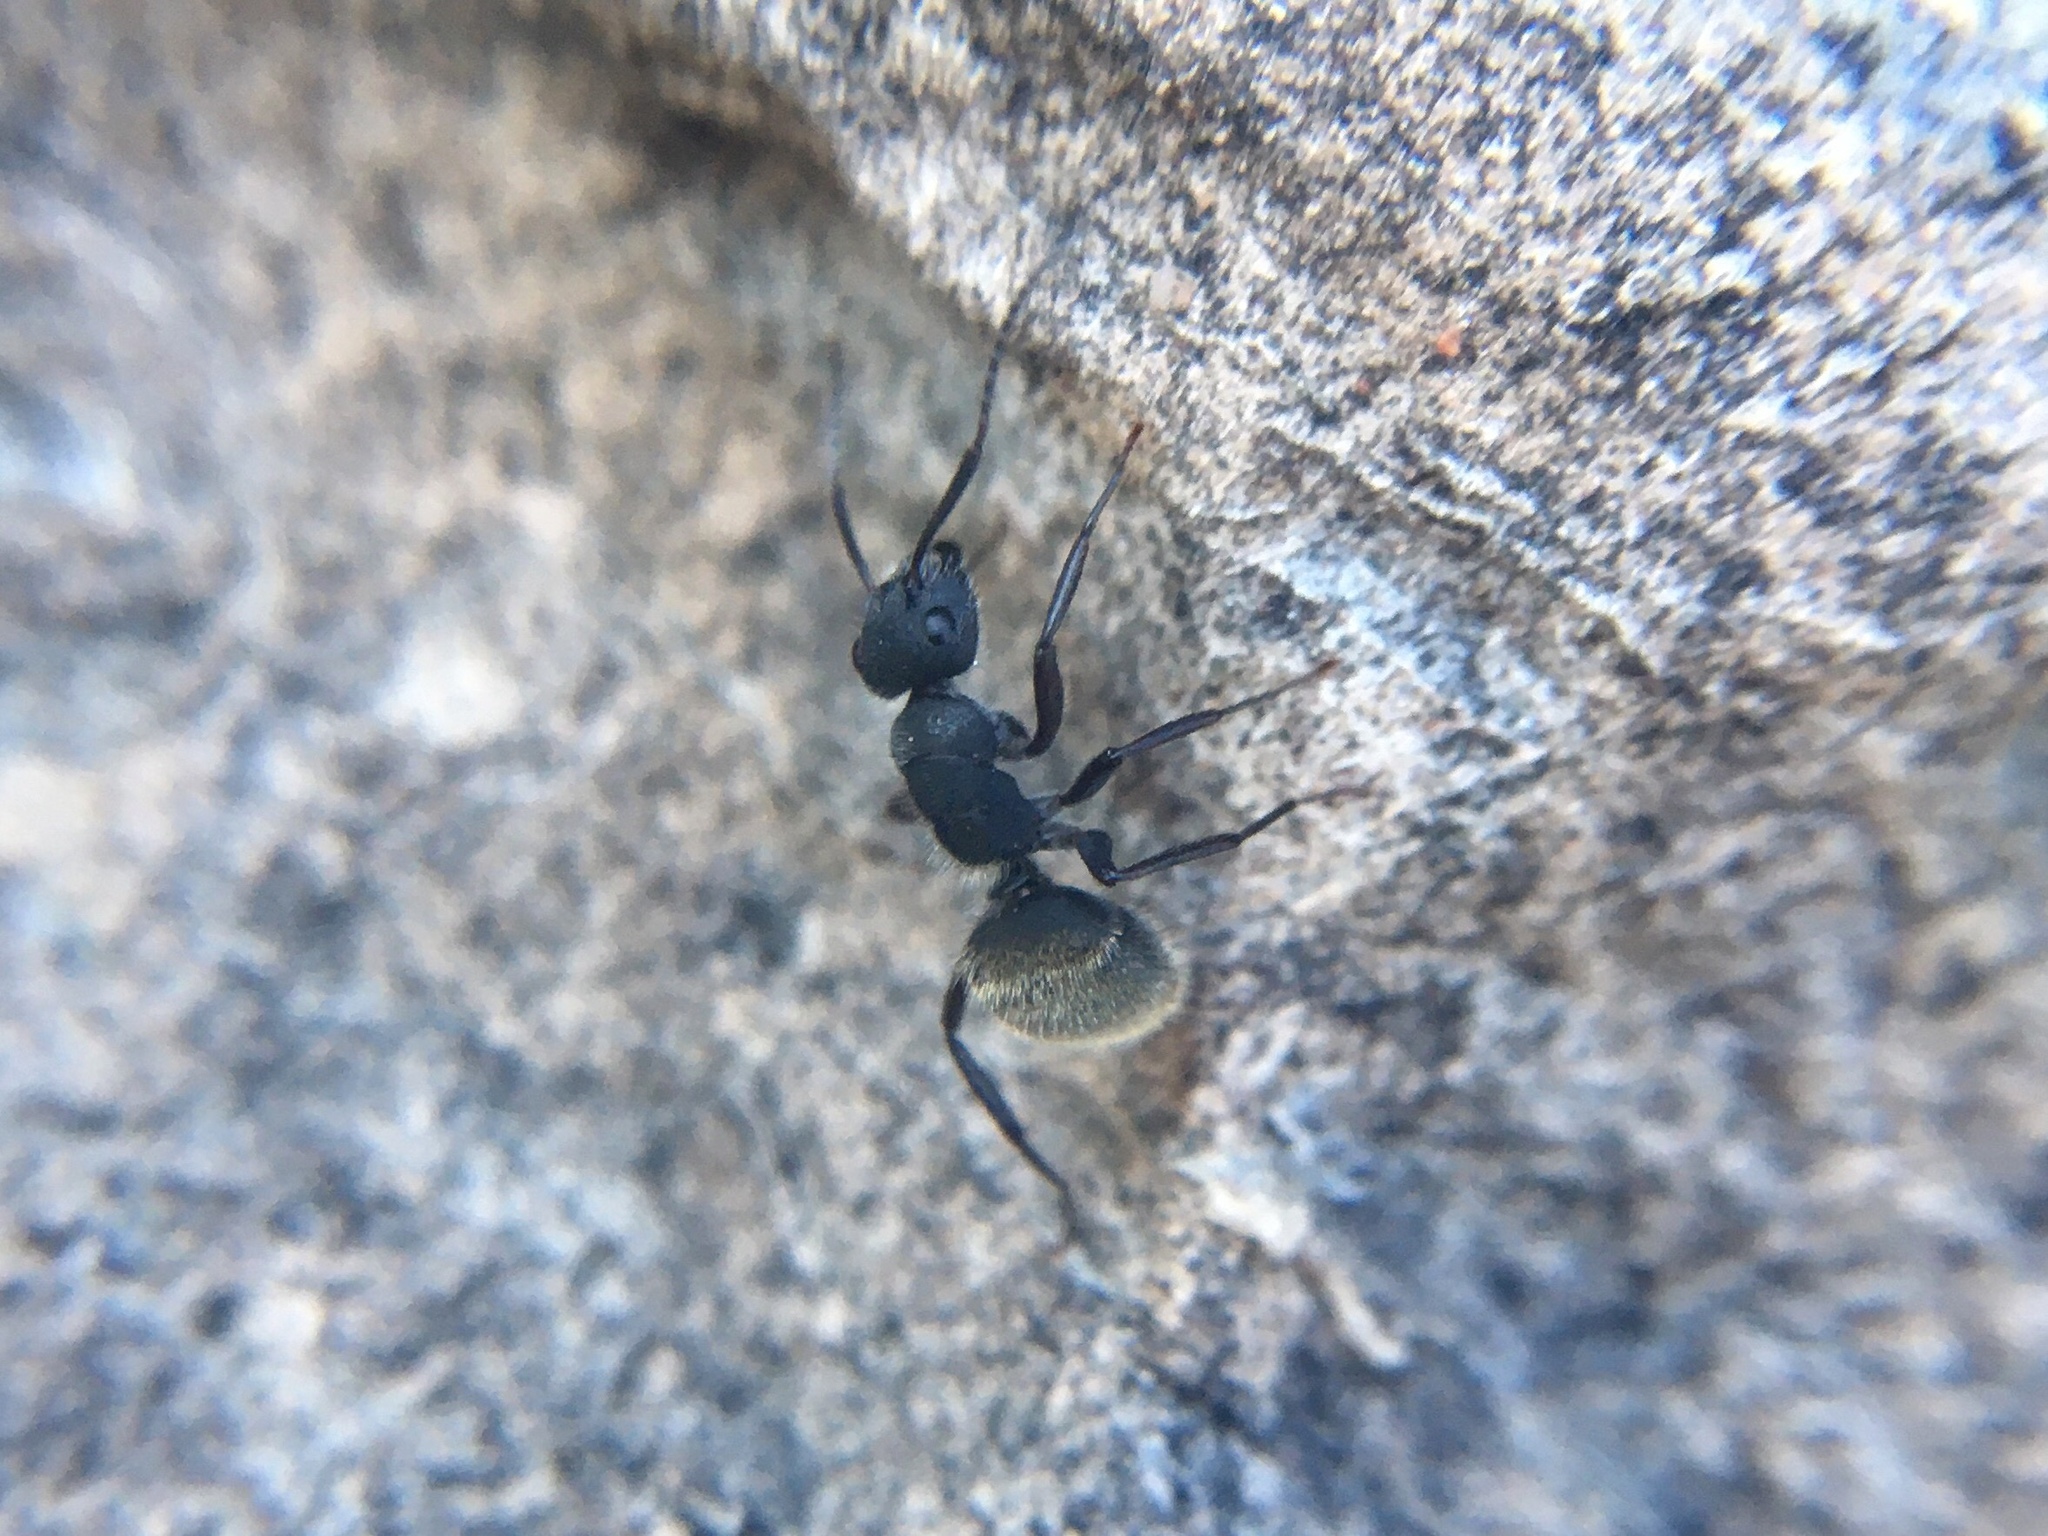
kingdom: Animalia
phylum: Arthropoda
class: Insecta
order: Hymenoptera
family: Formicidae
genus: Camponotus
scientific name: Camponotus mus
